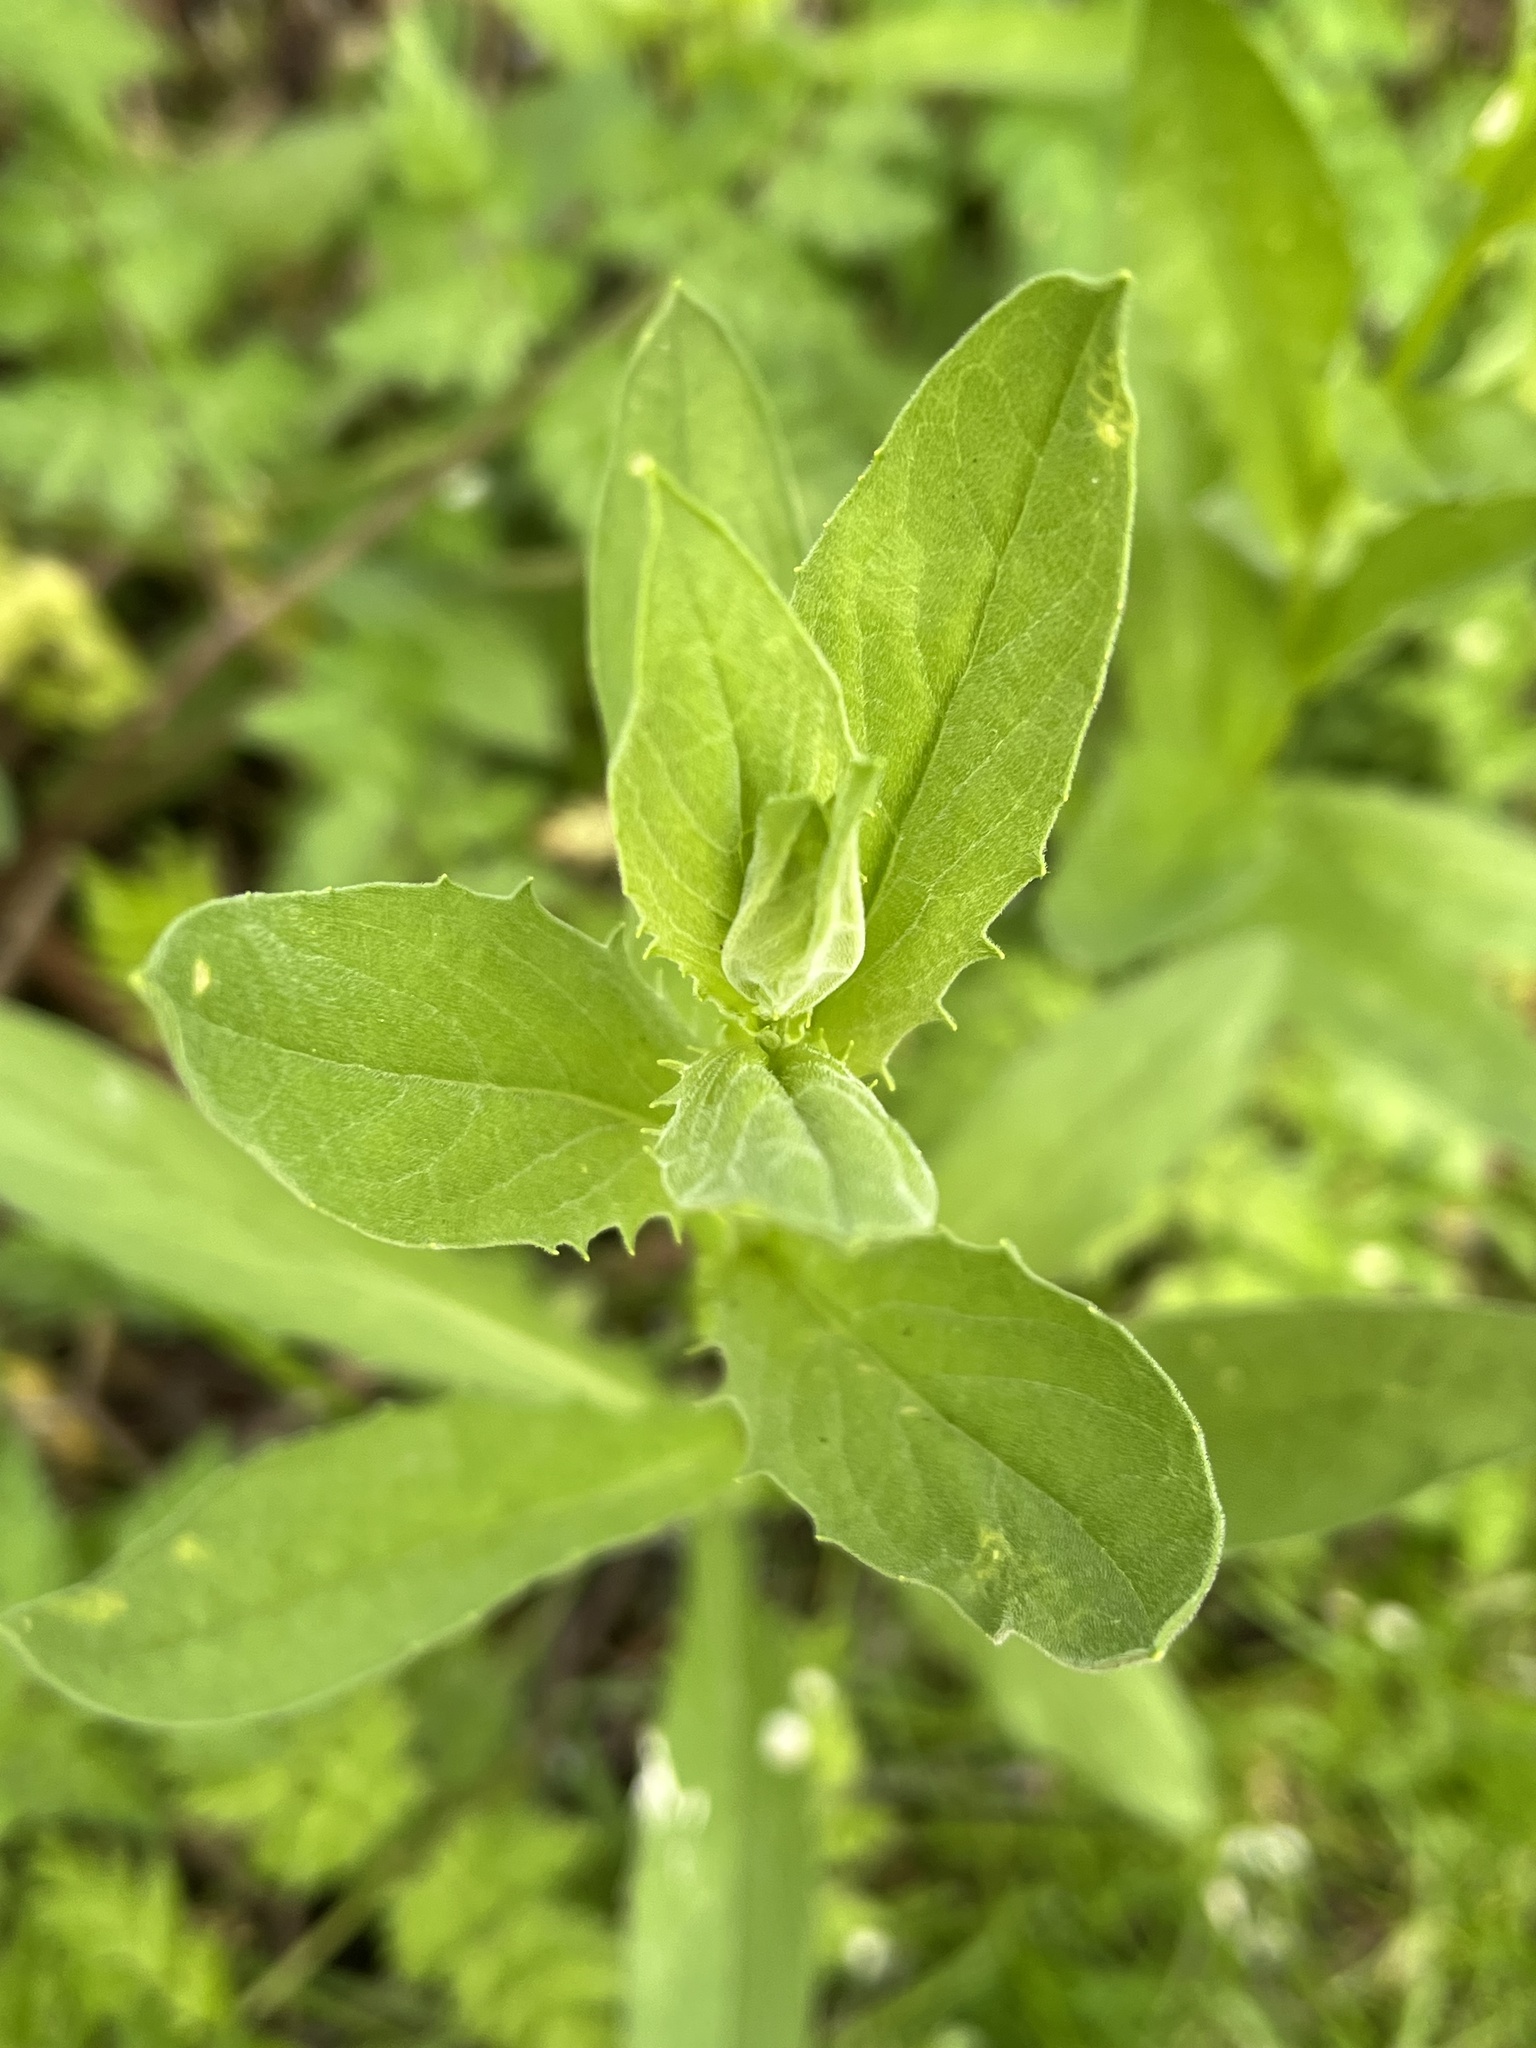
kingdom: Plantae
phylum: Tracheophyta
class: Magnoliopsida
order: Brassicales
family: Brassicaceae
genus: Lepidium
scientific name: Lepidium draba
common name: Hoary cress
